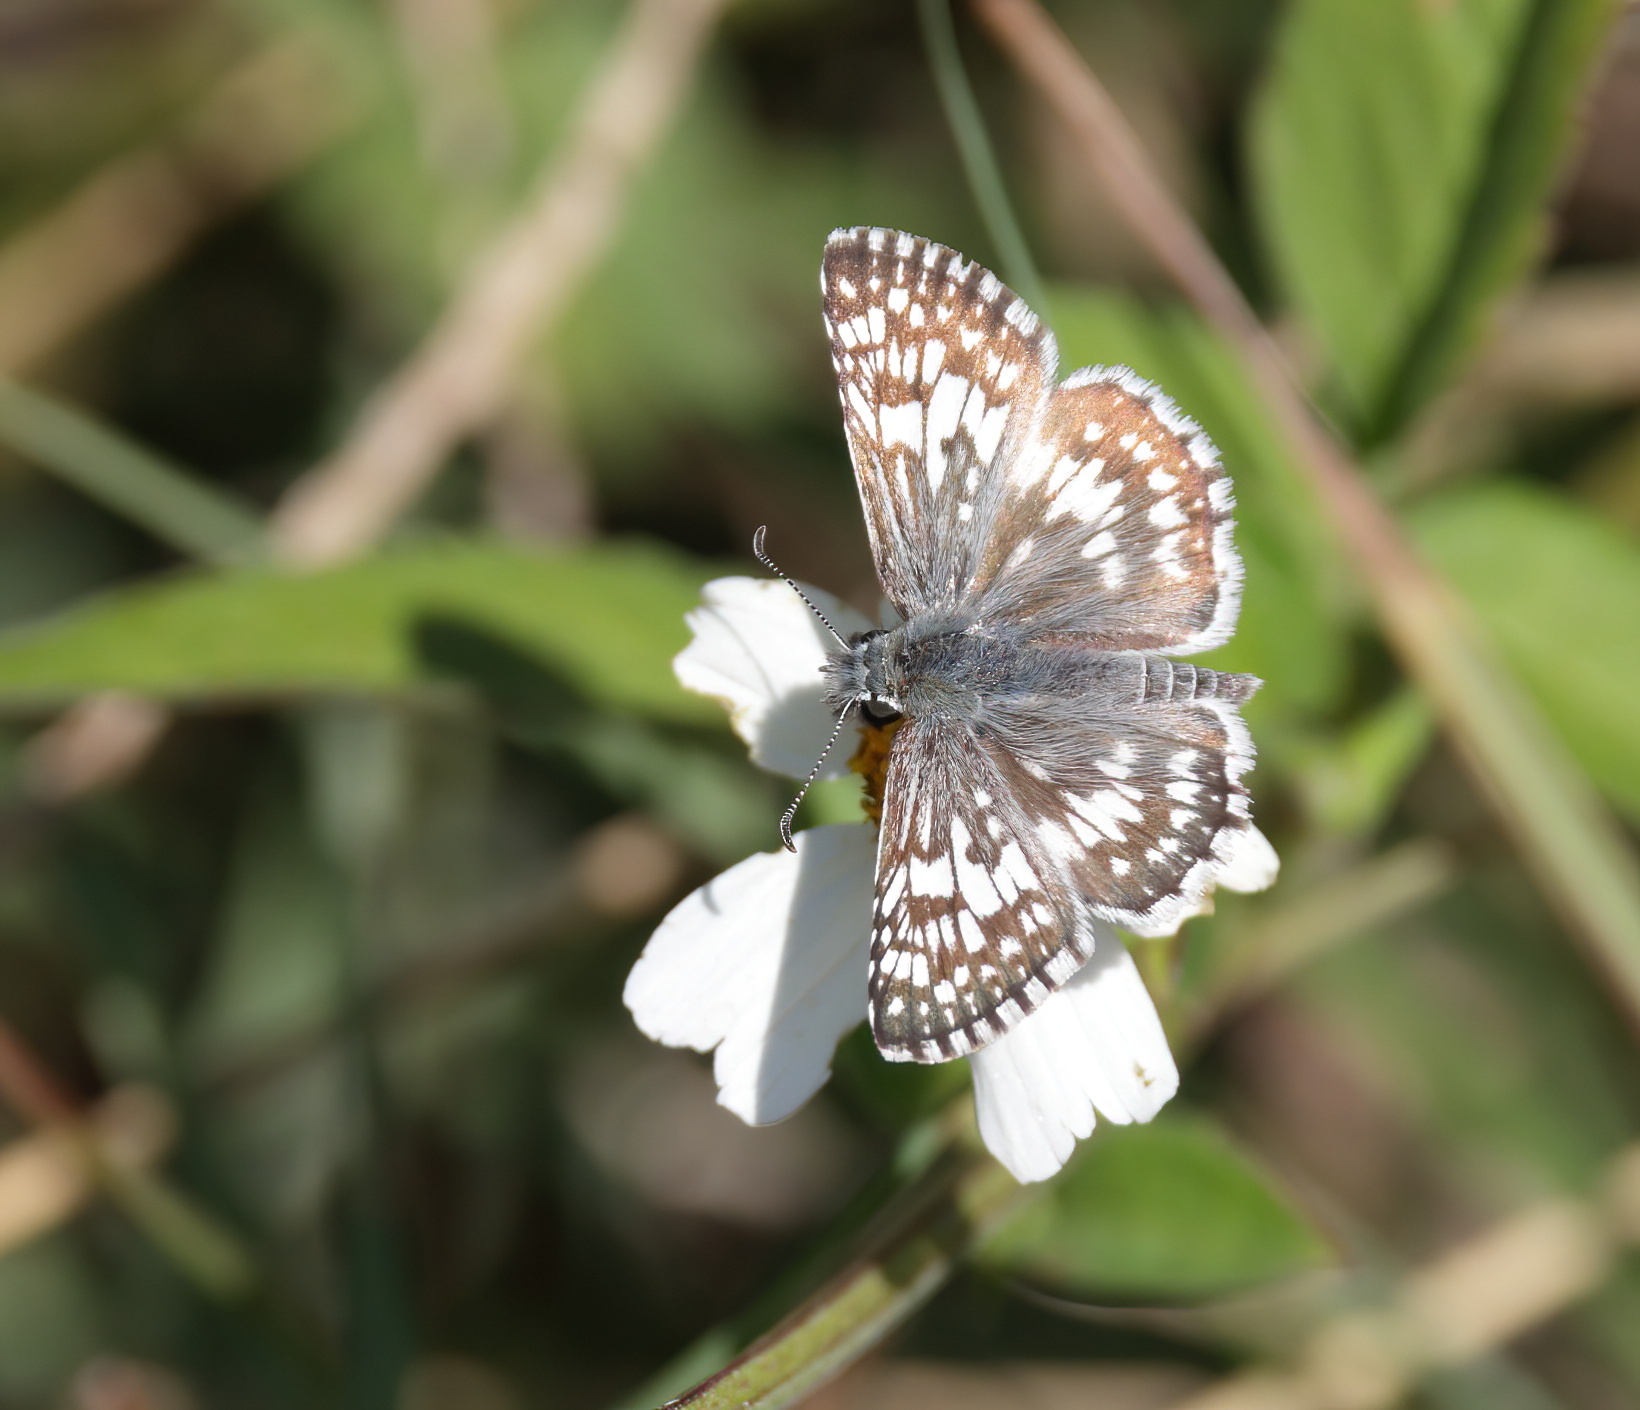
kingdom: Animalia
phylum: Arthropoda
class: Insecta
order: Lepidoptera
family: Hesperiidae
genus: Burnsius
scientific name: Burnsius
